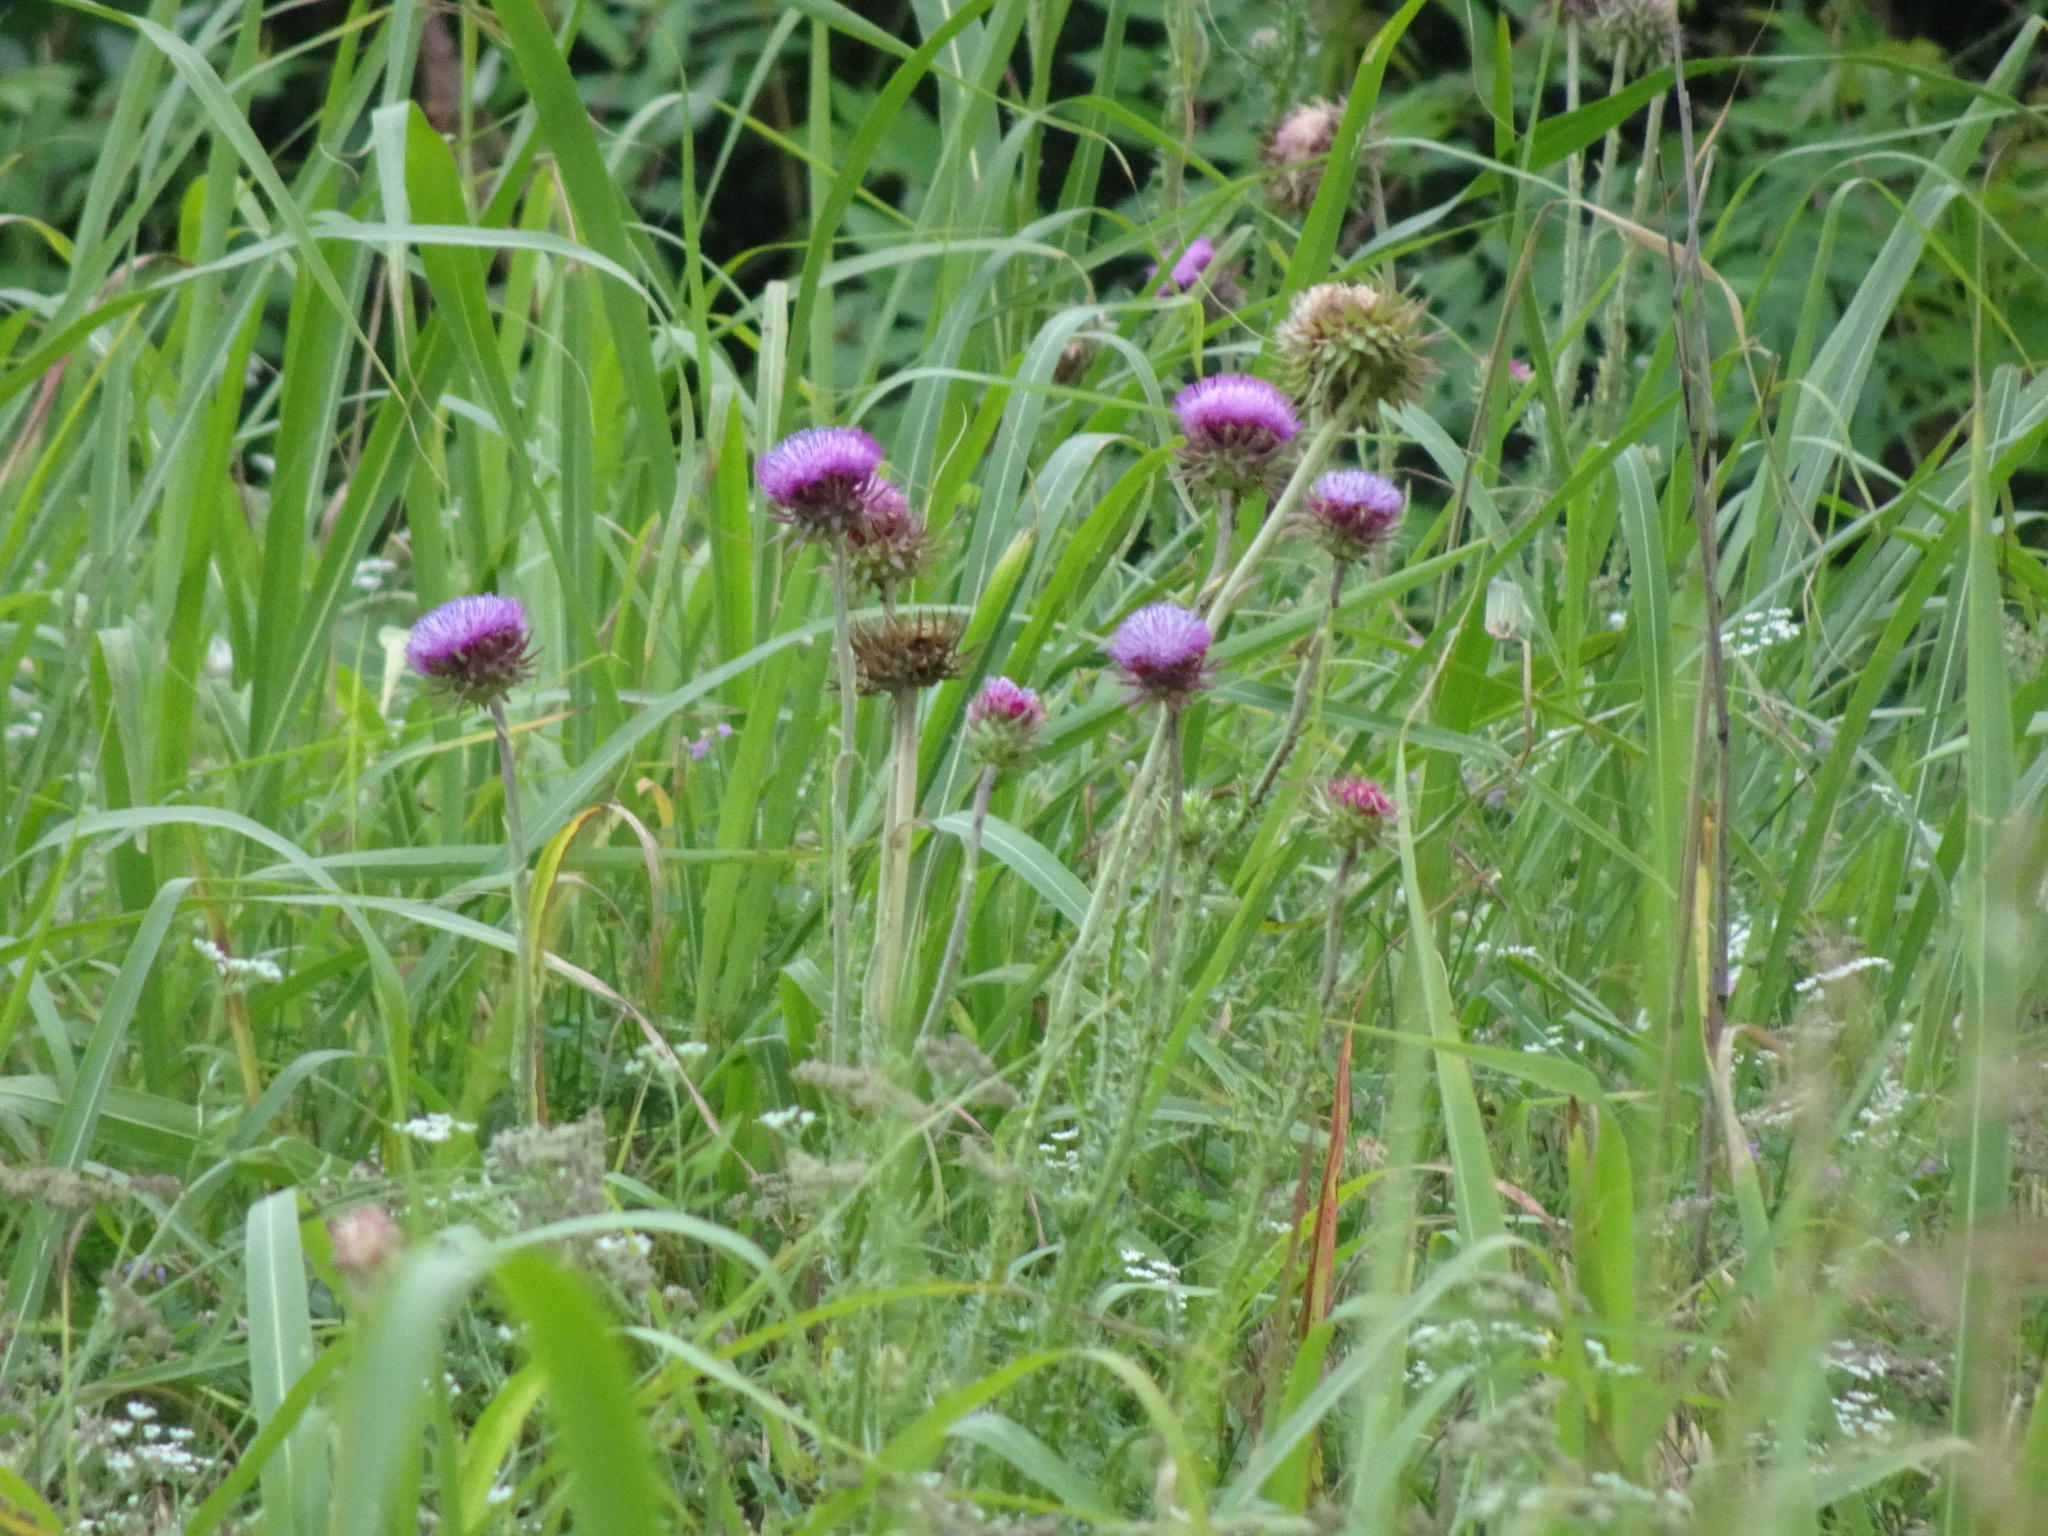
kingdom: Plantae
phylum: Tracheophyta
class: Magnoliopsida
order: Asterales
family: Asteraceae
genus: Carduus
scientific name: Carduus nutans
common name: Musk thistle
